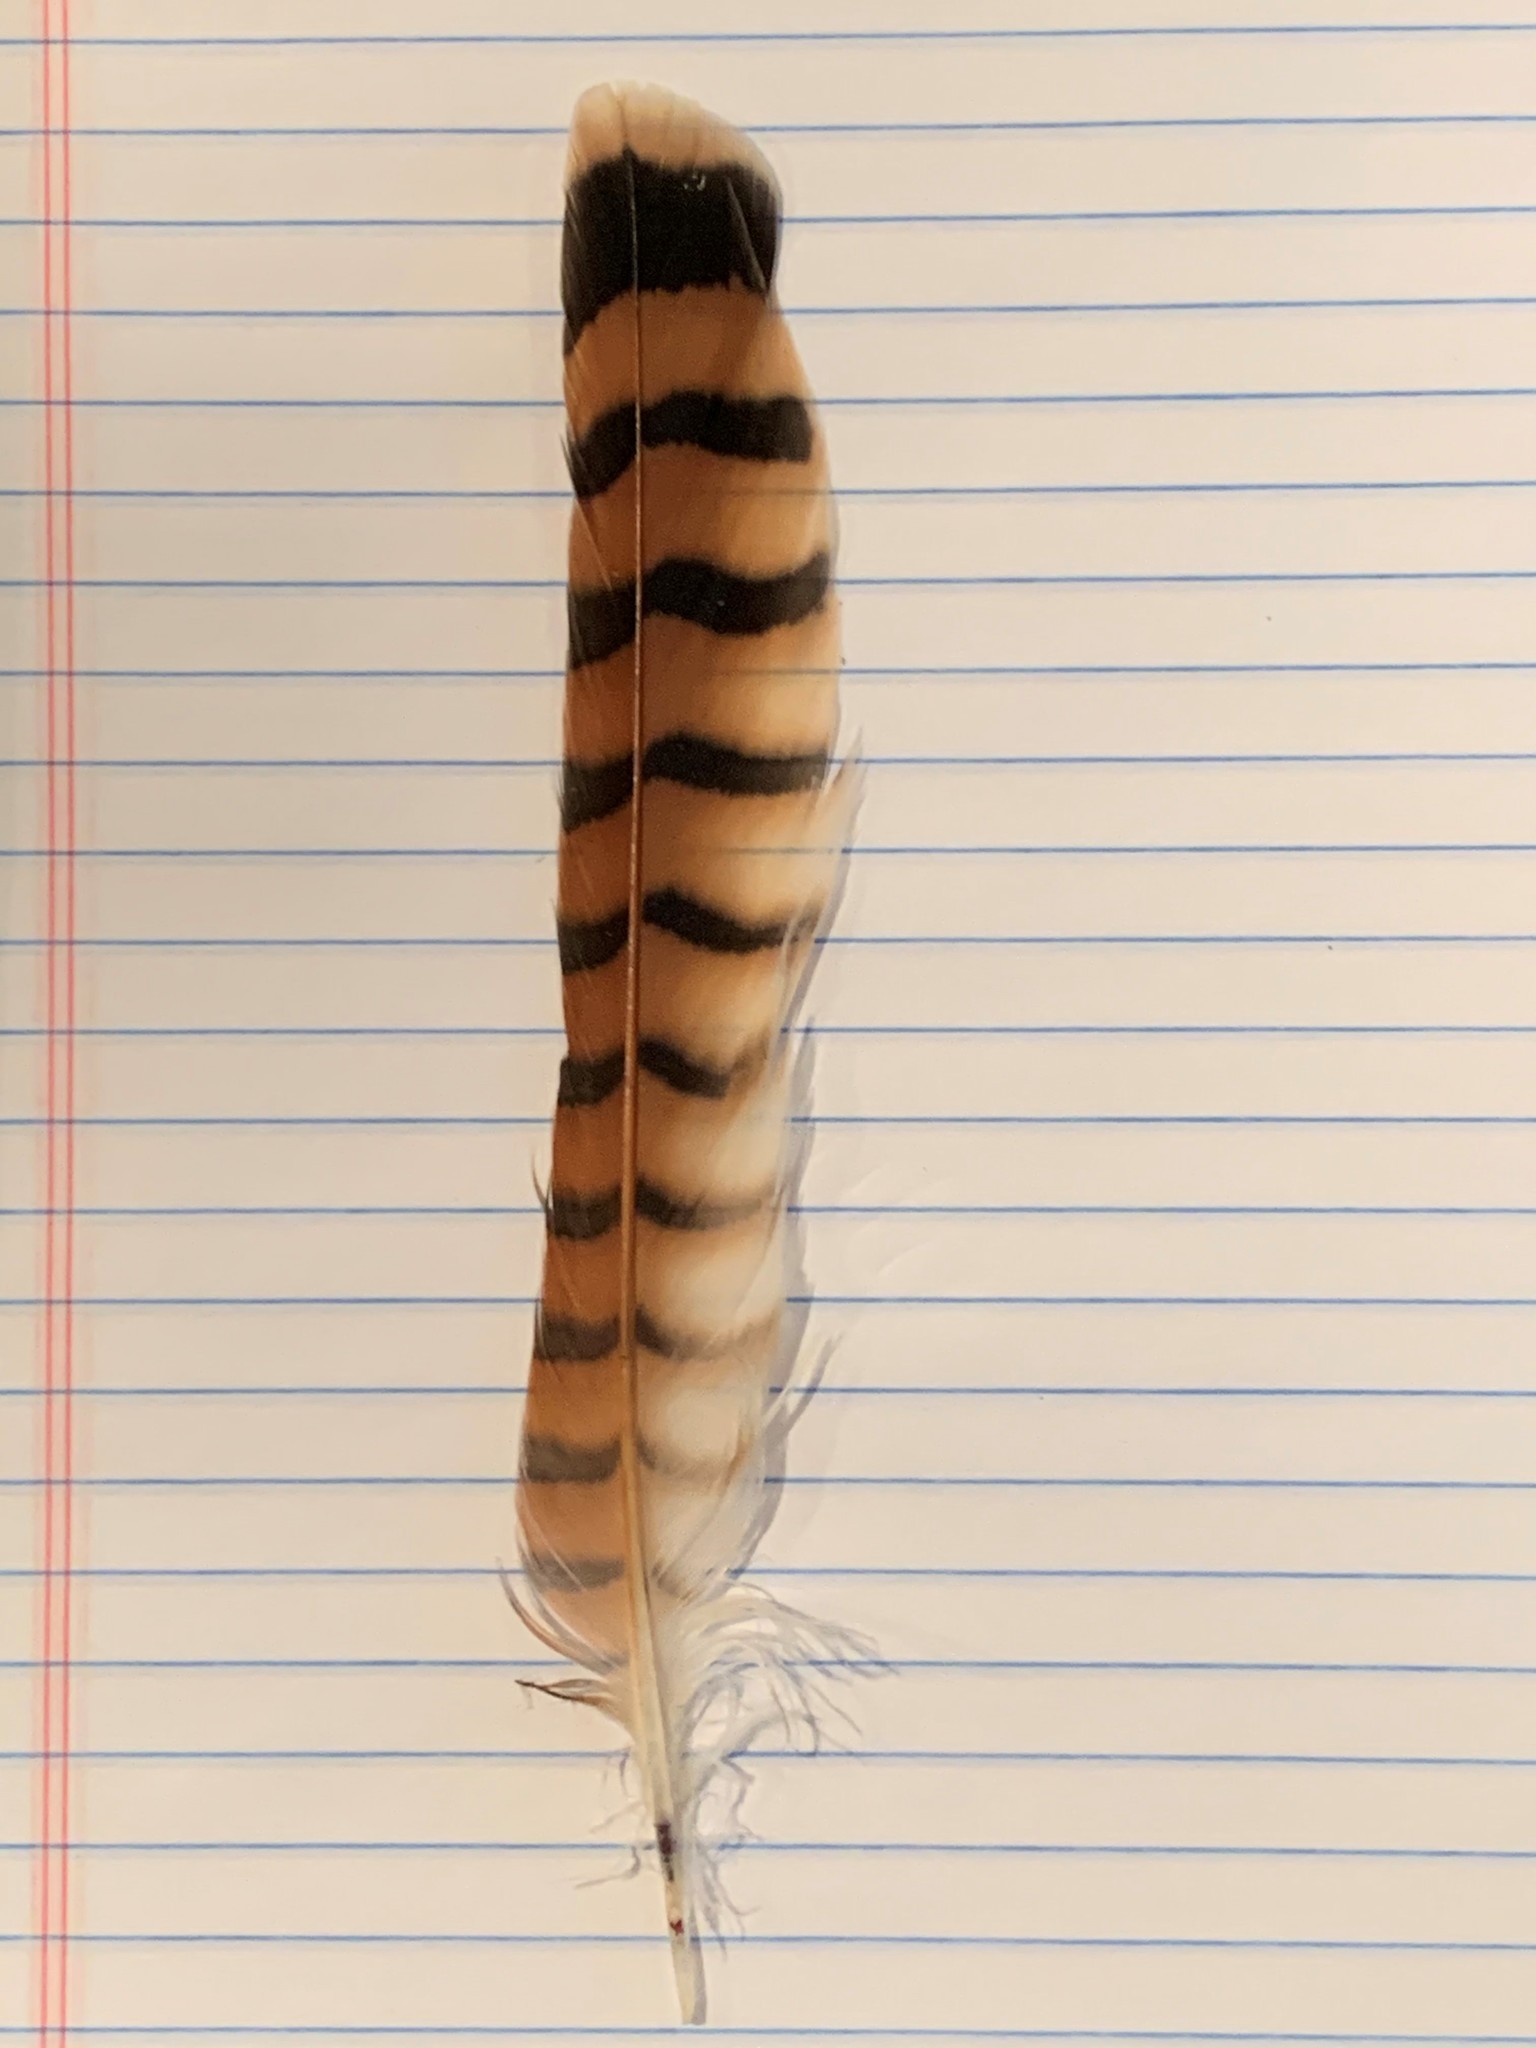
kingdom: Animalia
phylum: Chordata
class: Aves
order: Falconiformes
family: Falconidae
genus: Falco
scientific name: Falco sparverius
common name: American kestrel
